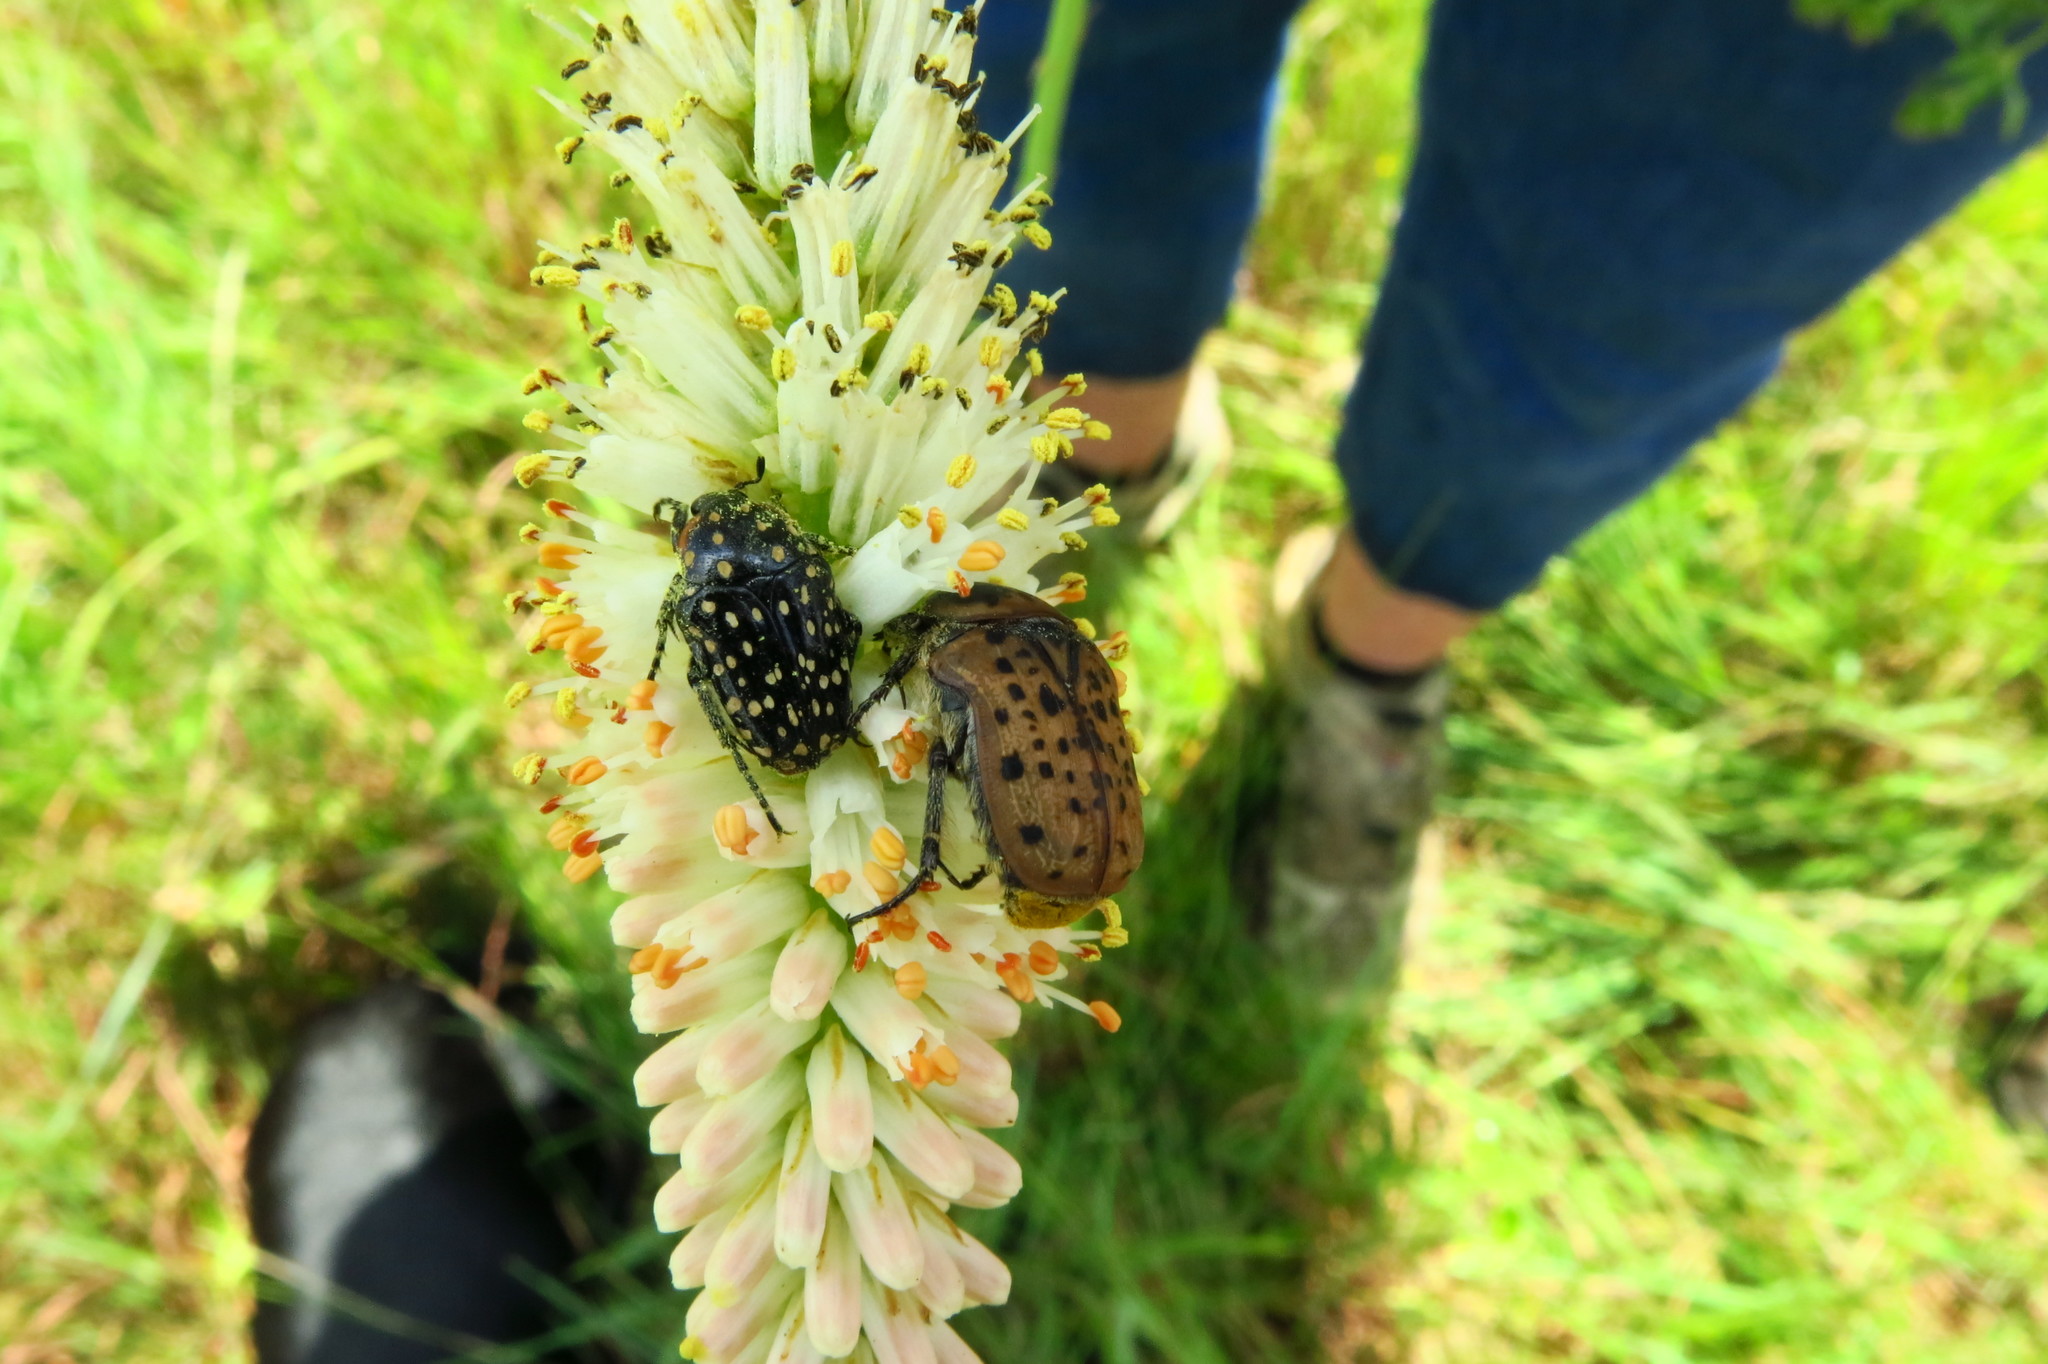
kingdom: Plantae
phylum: Tracheophyta
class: Liliopsida
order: Asparagales
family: Asphodelaceae
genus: Kniphofia
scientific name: Kniphofia buchananii
